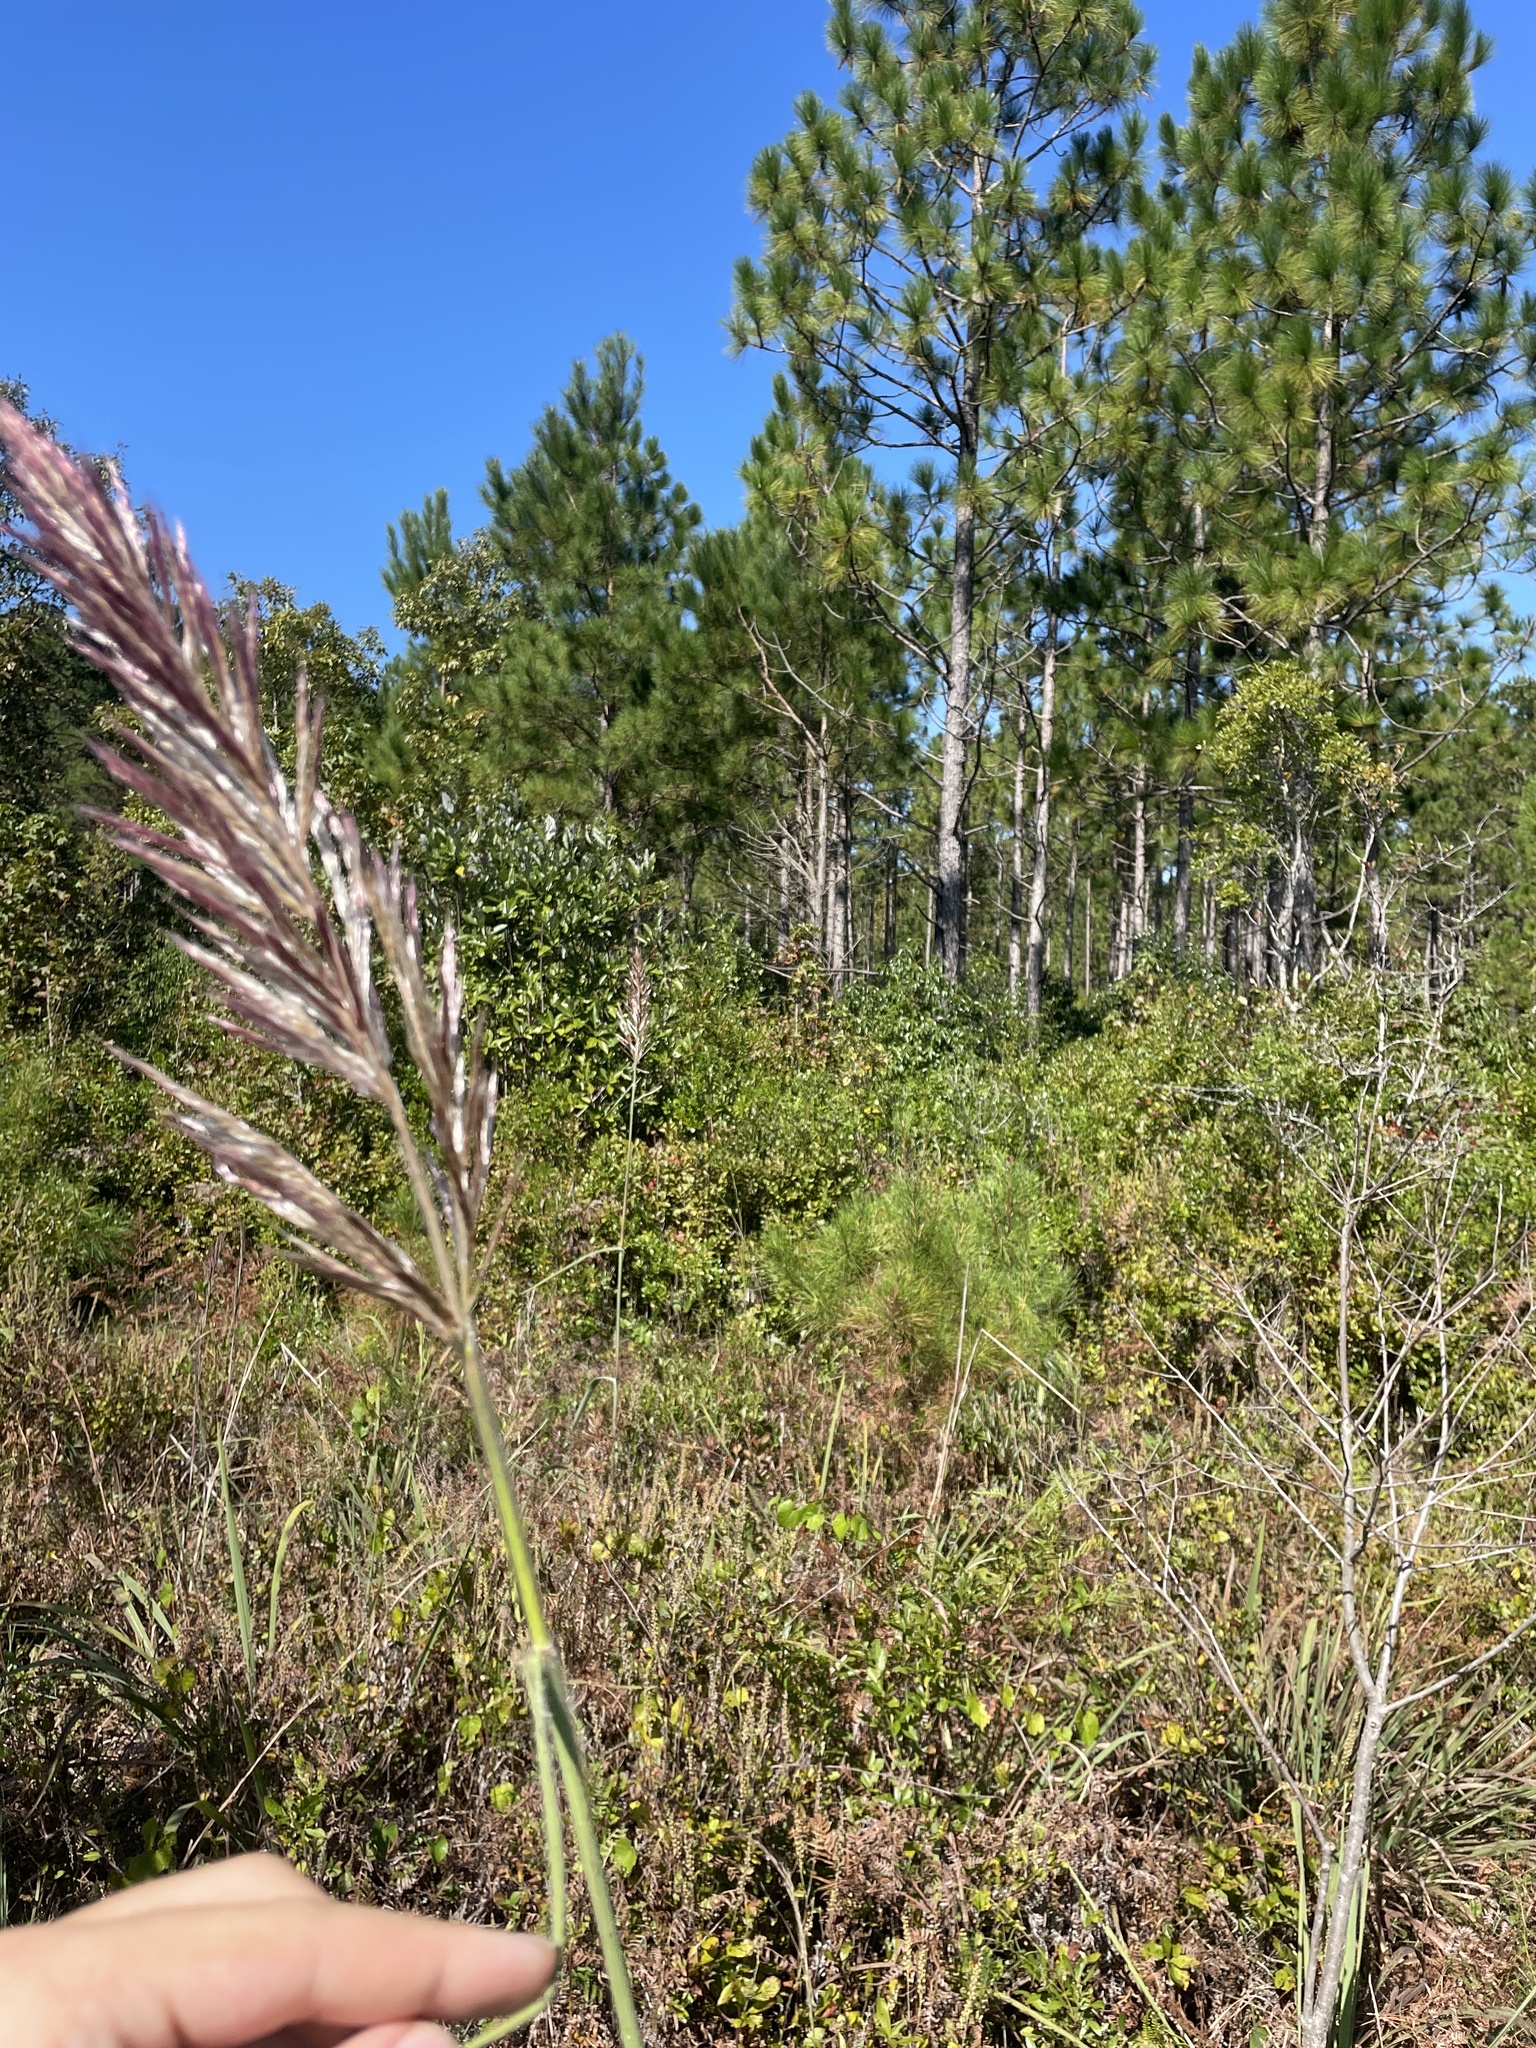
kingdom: Plantae
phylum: Tracheophyta
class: Liliopsida
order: Poales
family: Poaceae
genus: Erianthus
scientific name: Erianthus giganteus
